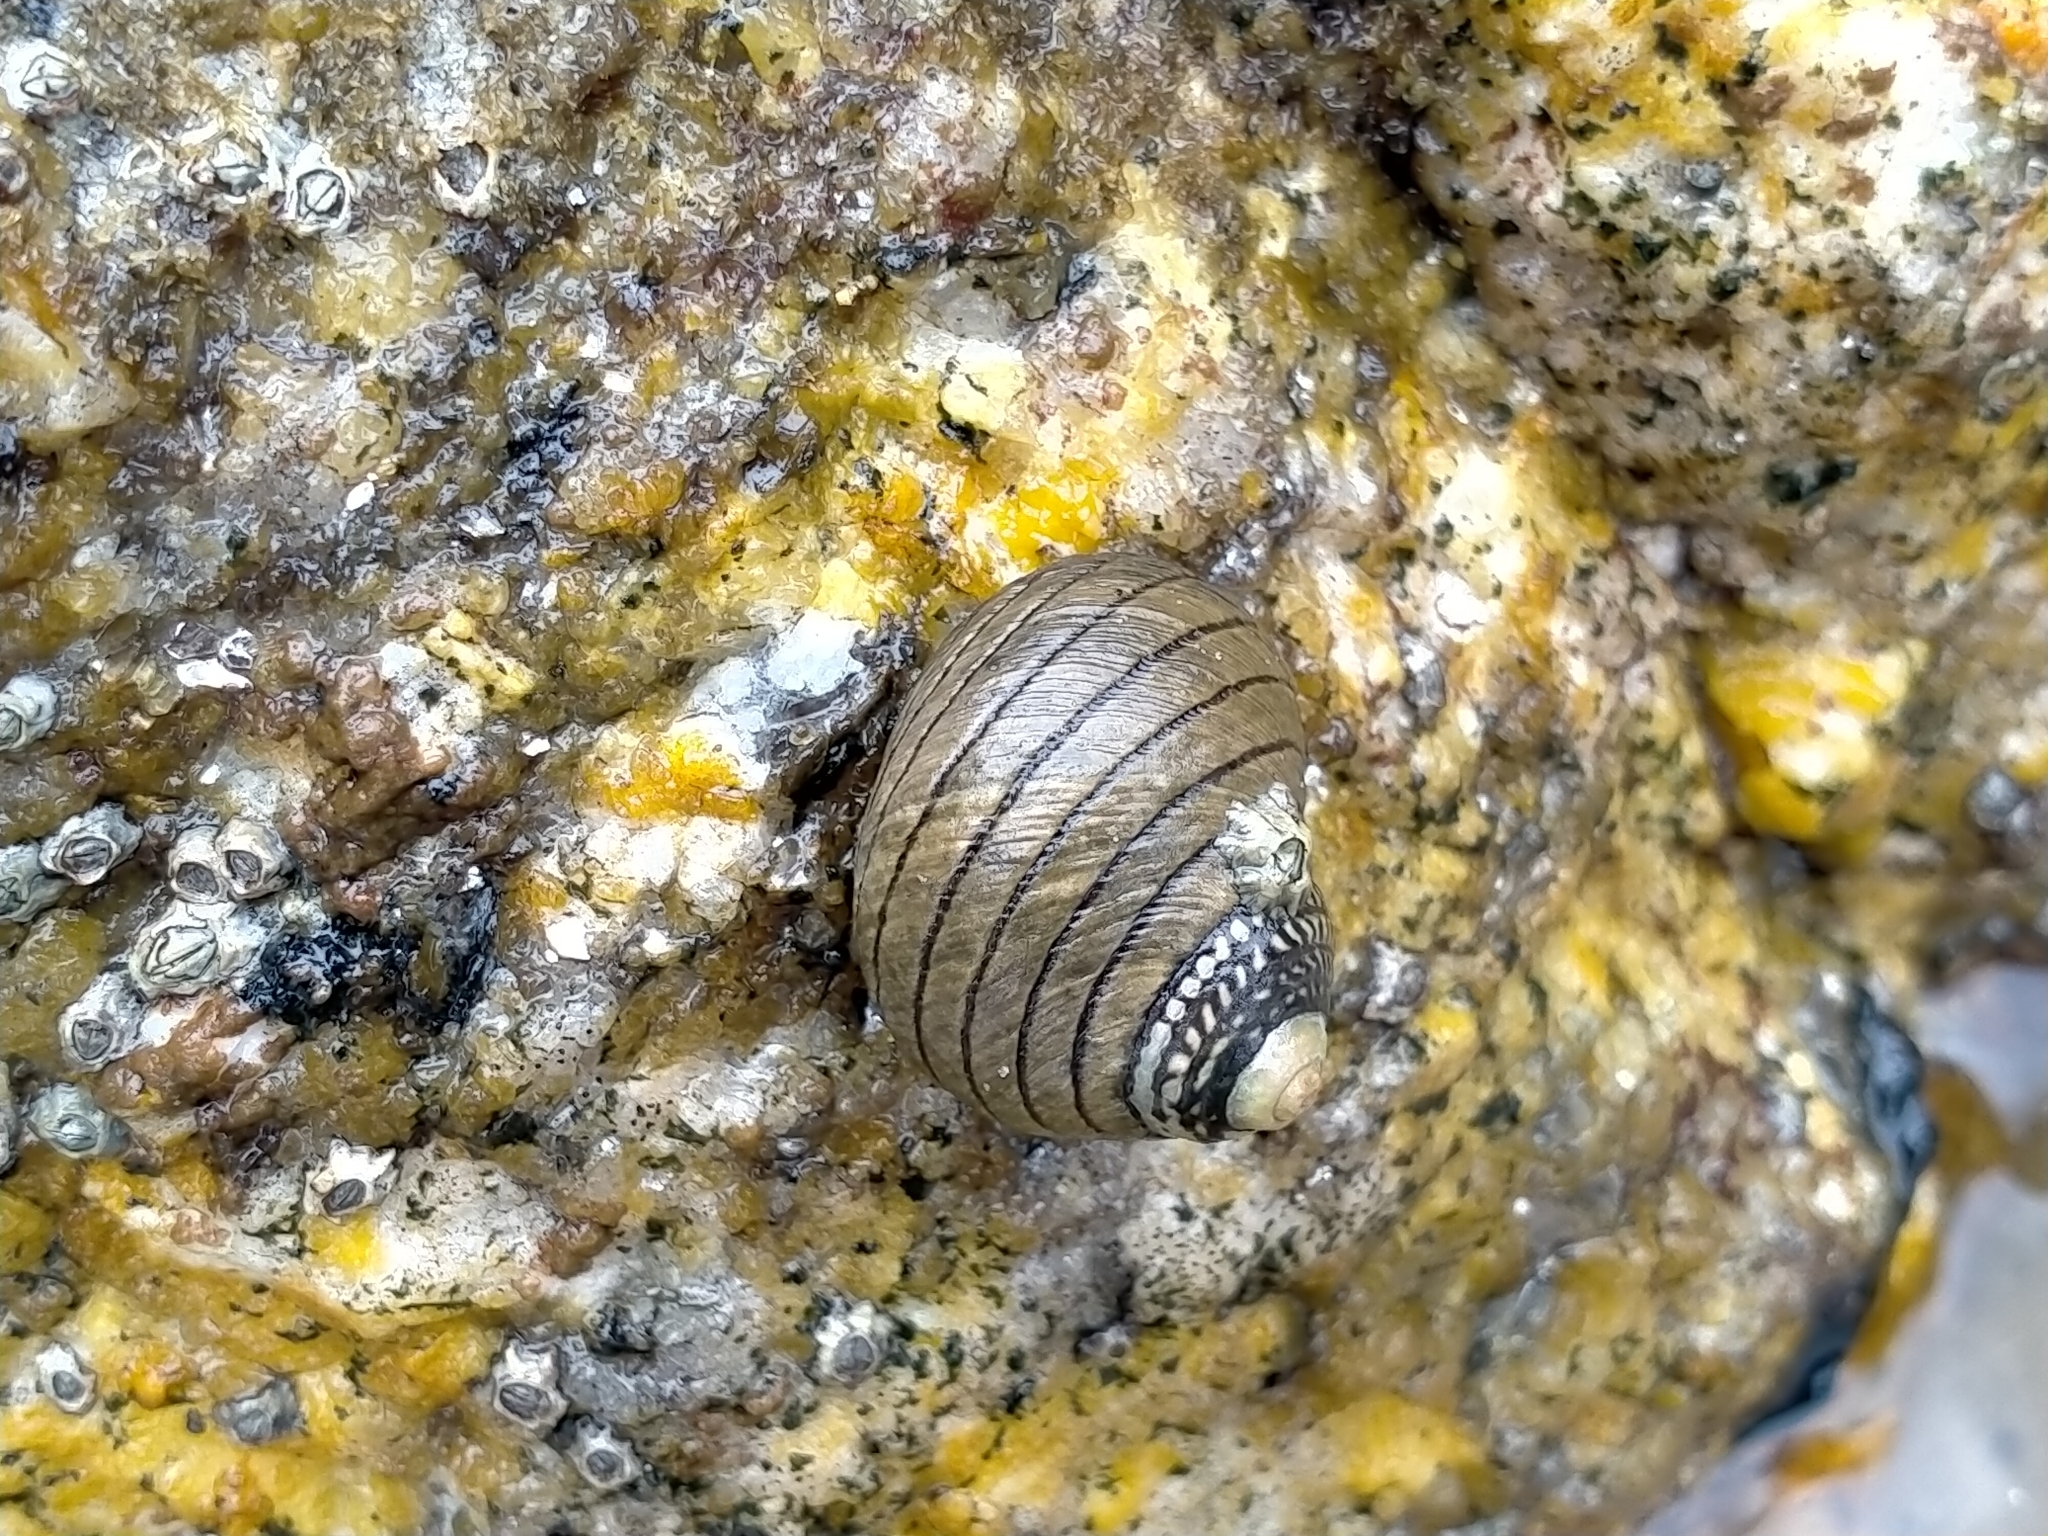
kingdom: Animalia
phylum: Mollusca
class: Gastropoda
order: Trochida
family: Trochidae
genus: Diloma
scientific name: Diloma aethiops
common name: Scorched monodont
